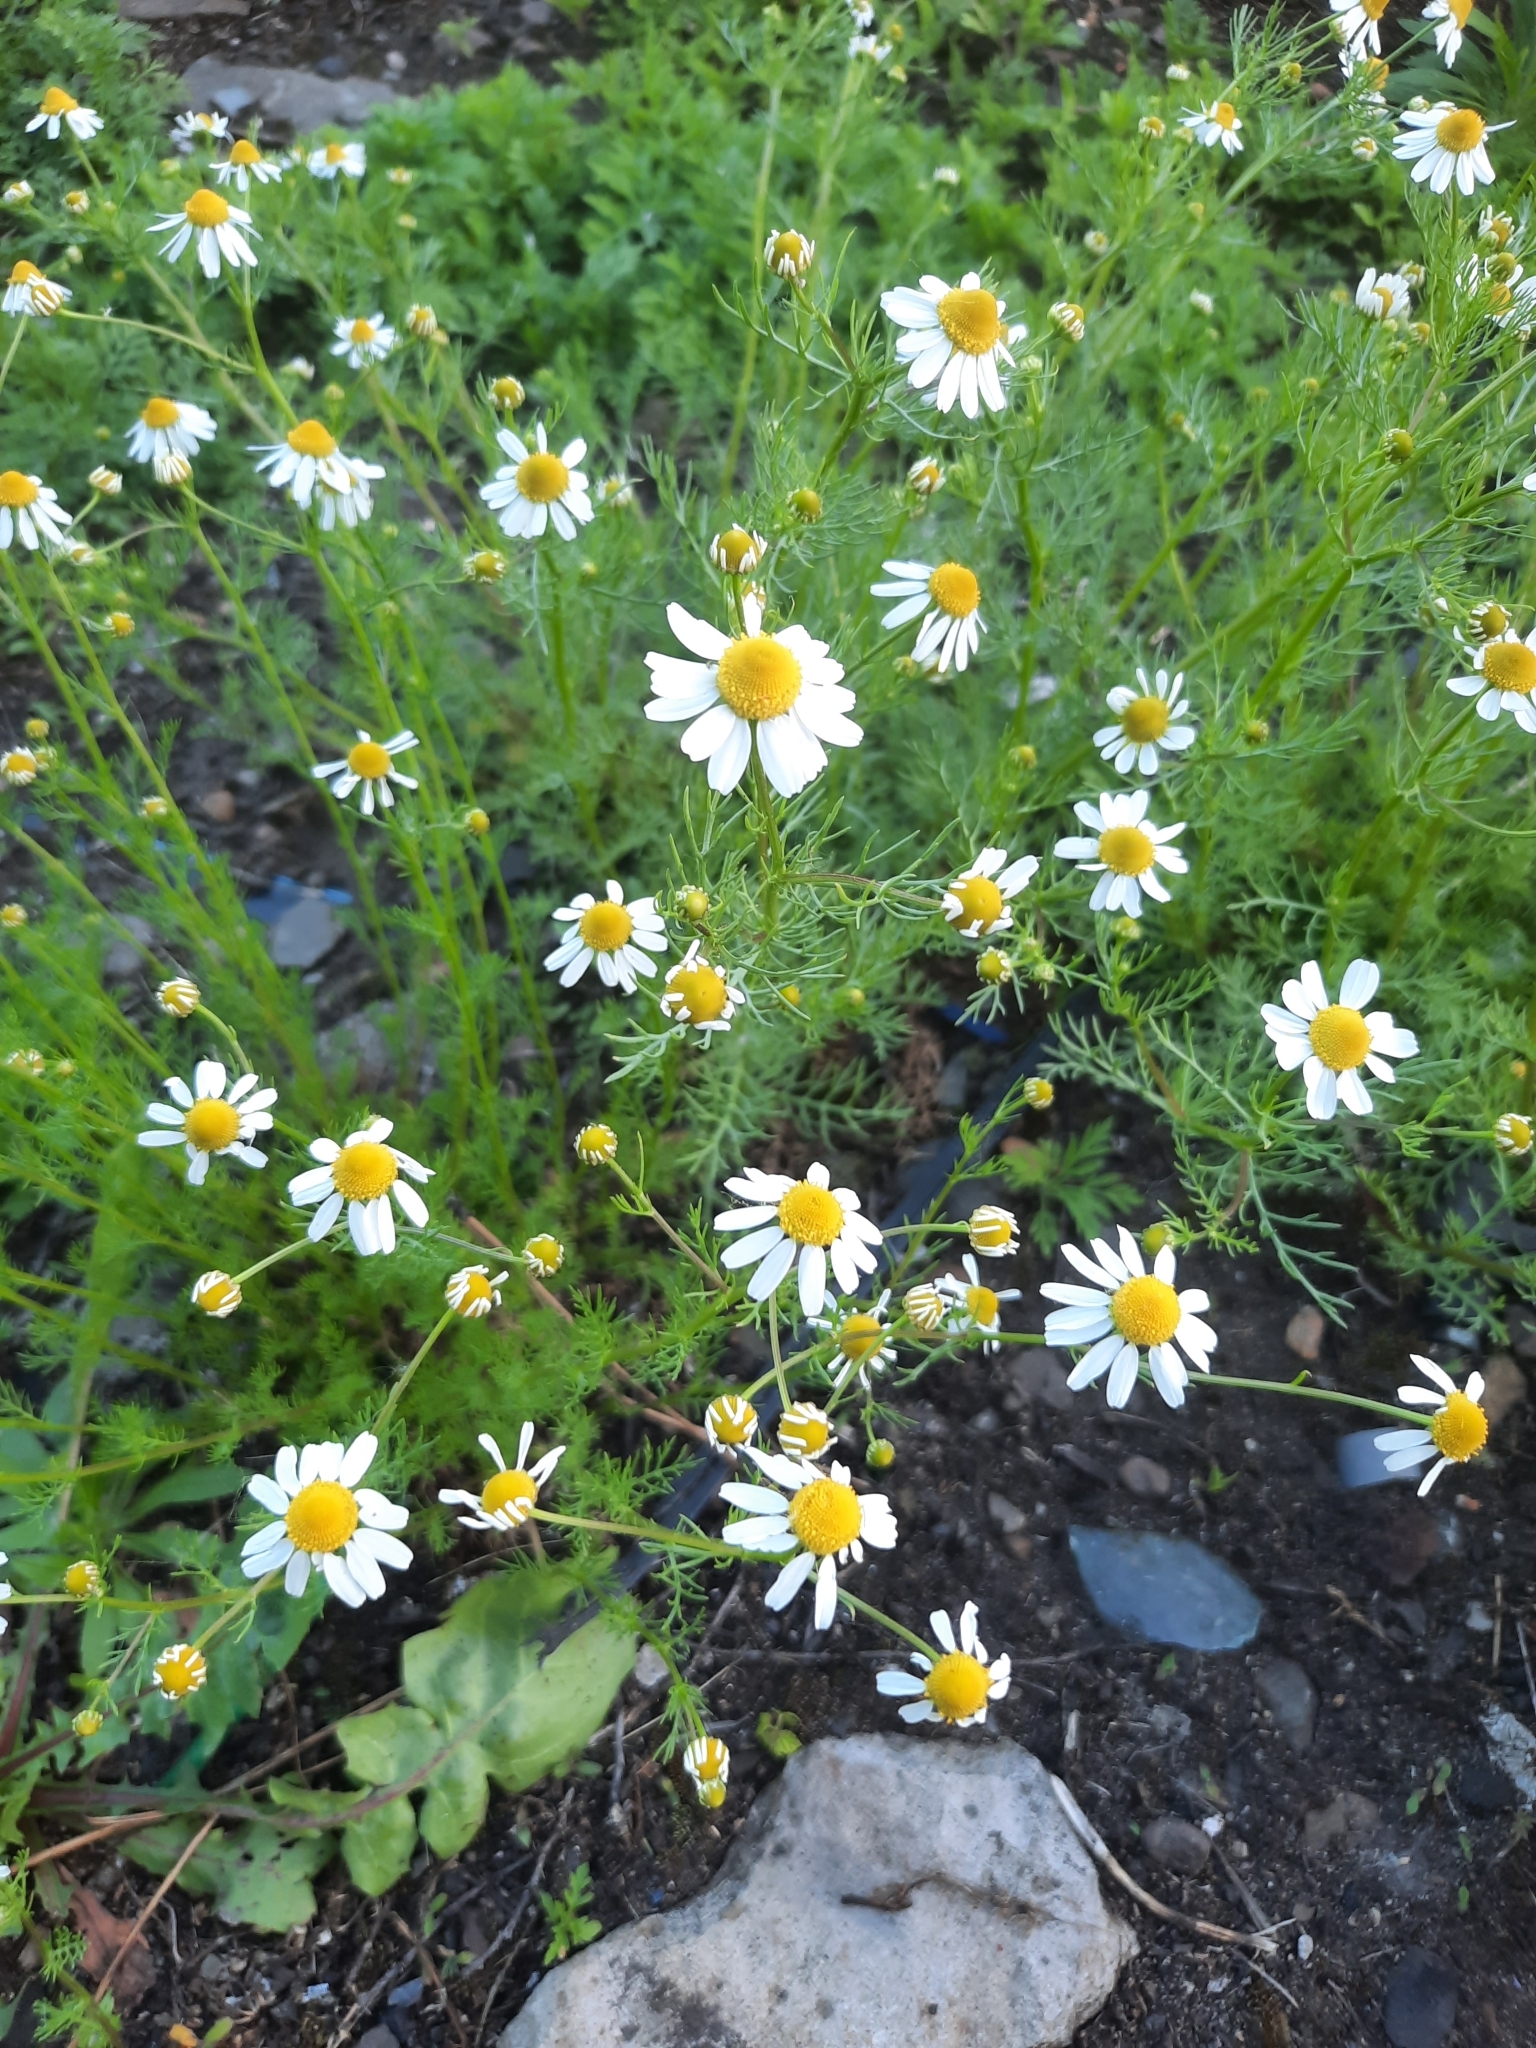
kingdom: Plantae
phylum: Tracheophyta
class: Magnoliopsida
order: Asterales
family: Asteraceae
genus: Matricaria
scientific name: Matricaria chamomilla
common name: Scented mayweed
